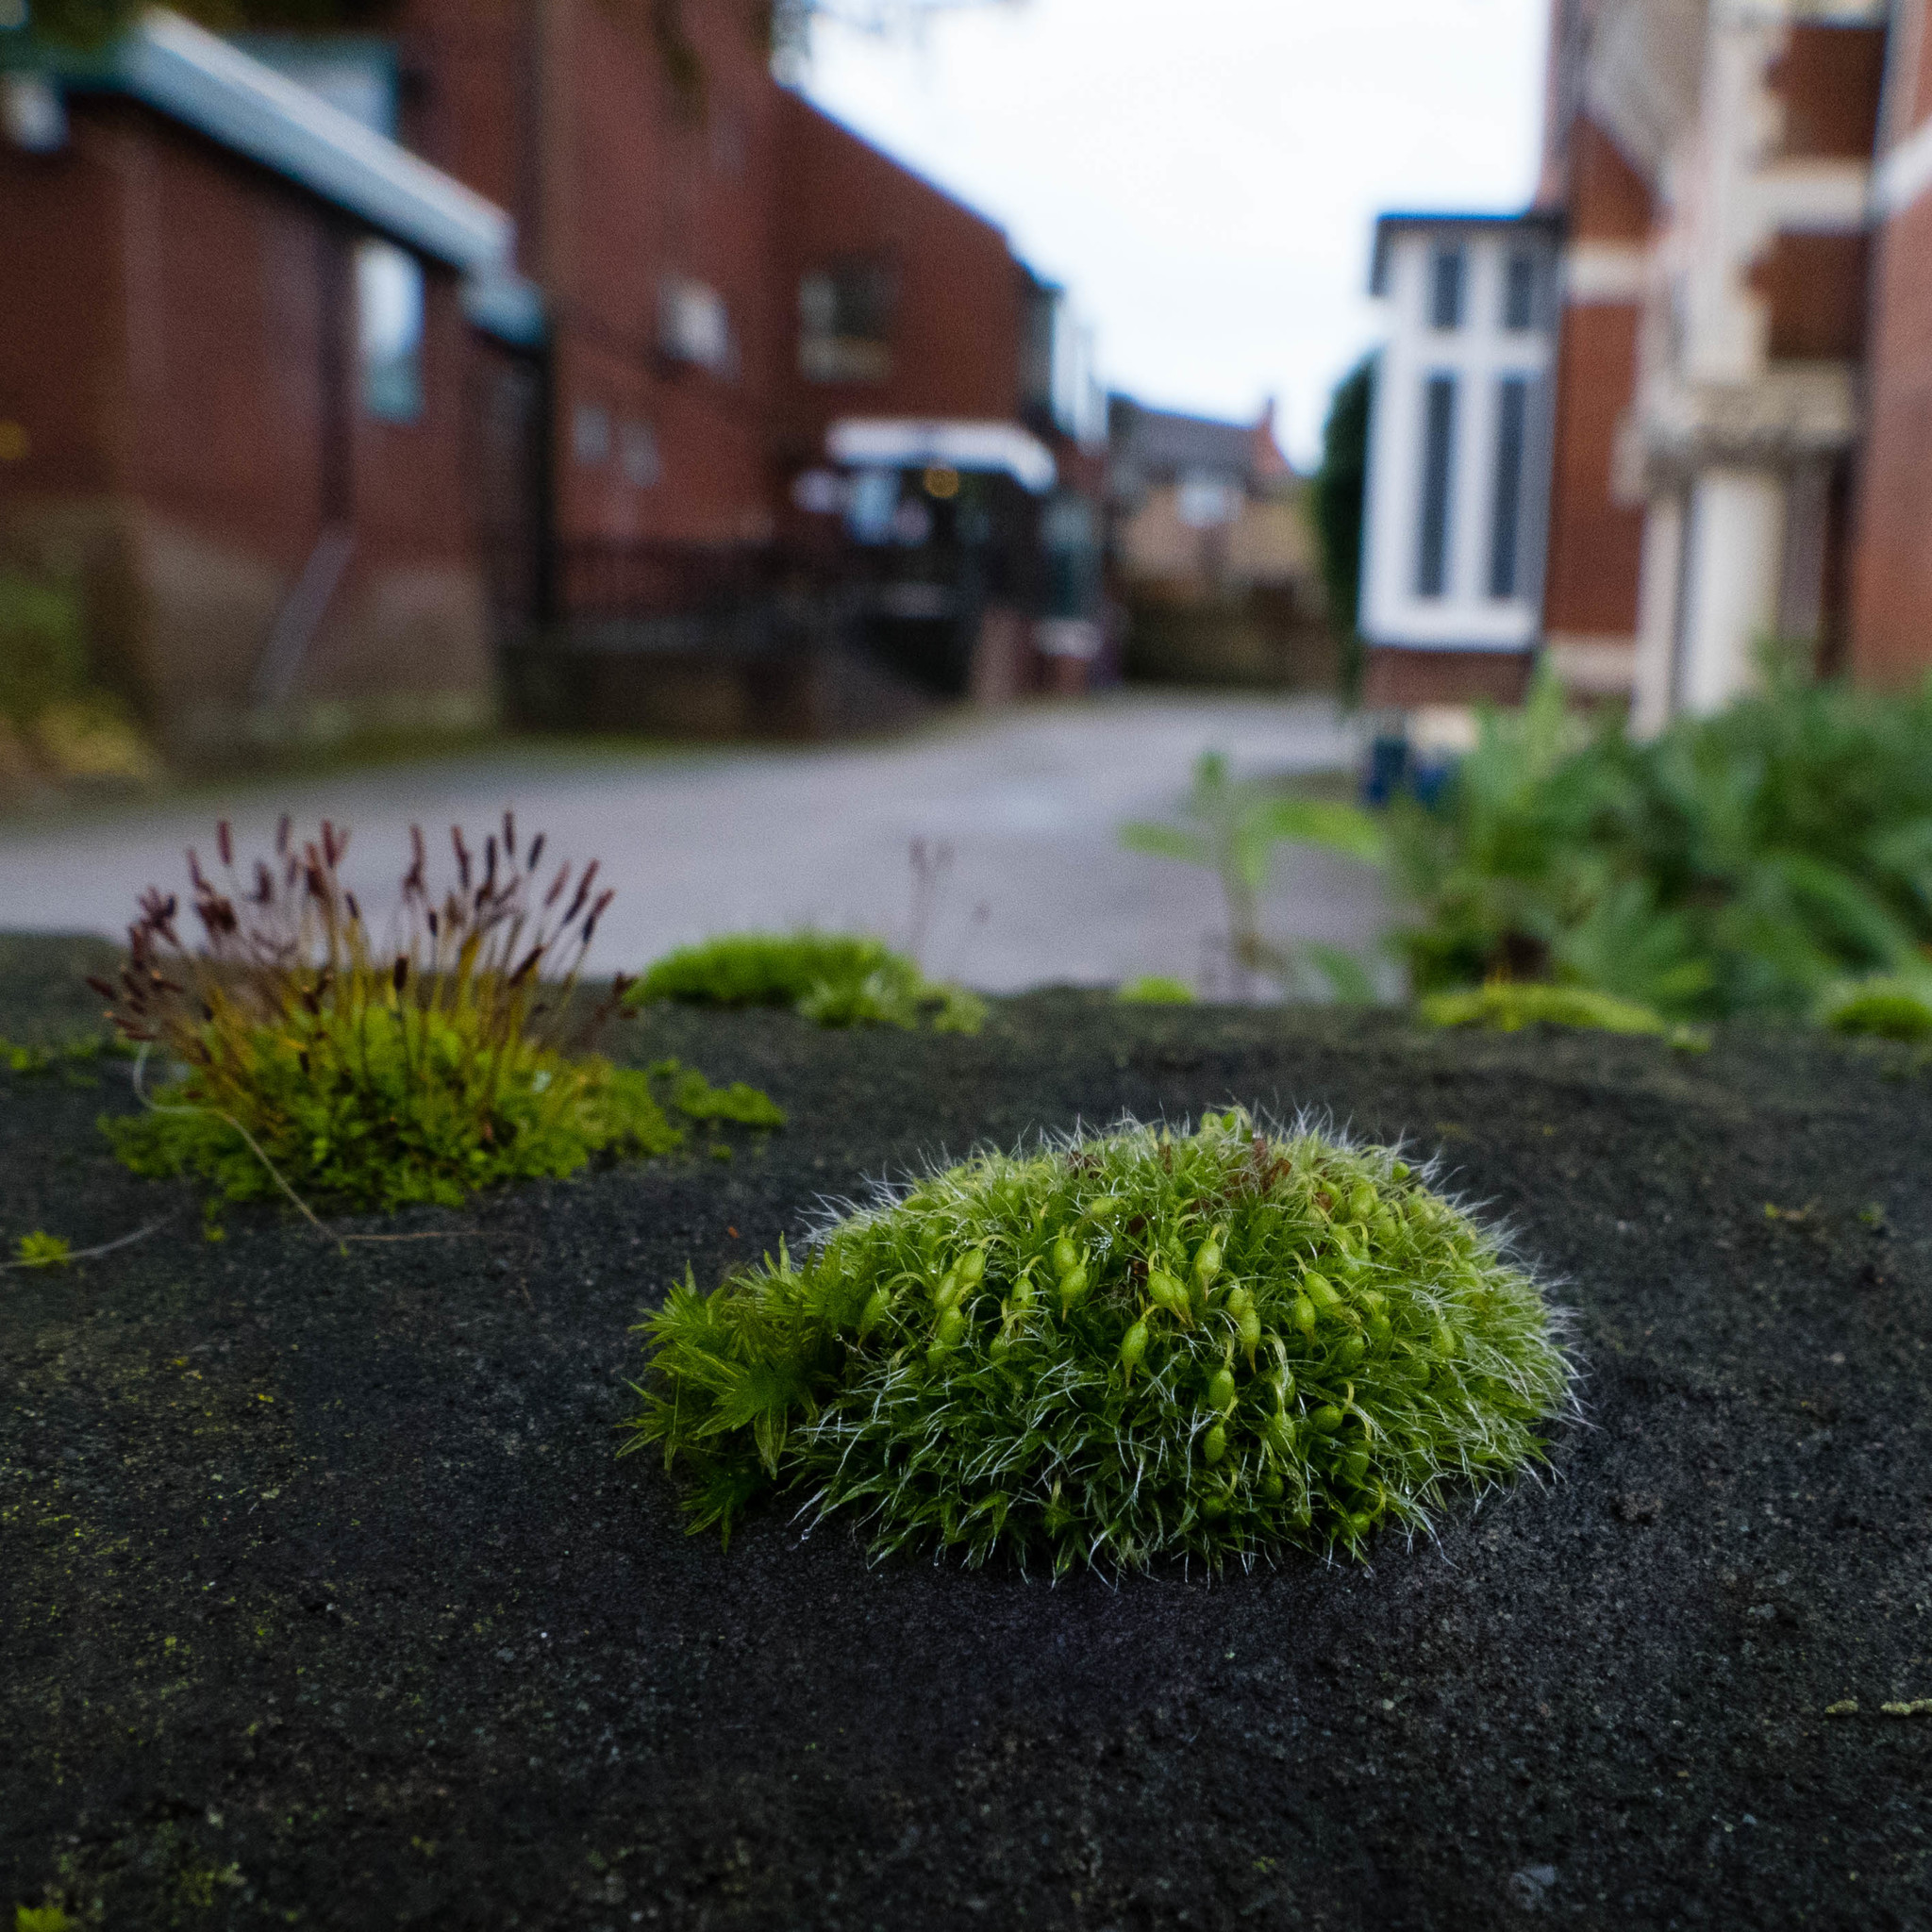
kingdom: Plantae
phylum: Bryophyta
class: Bryopsida
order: Grimmiales
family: Grimmiaceae
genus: Grimmia
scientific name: Grimmia pulvinata
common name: Grey-cushioned grimmia
